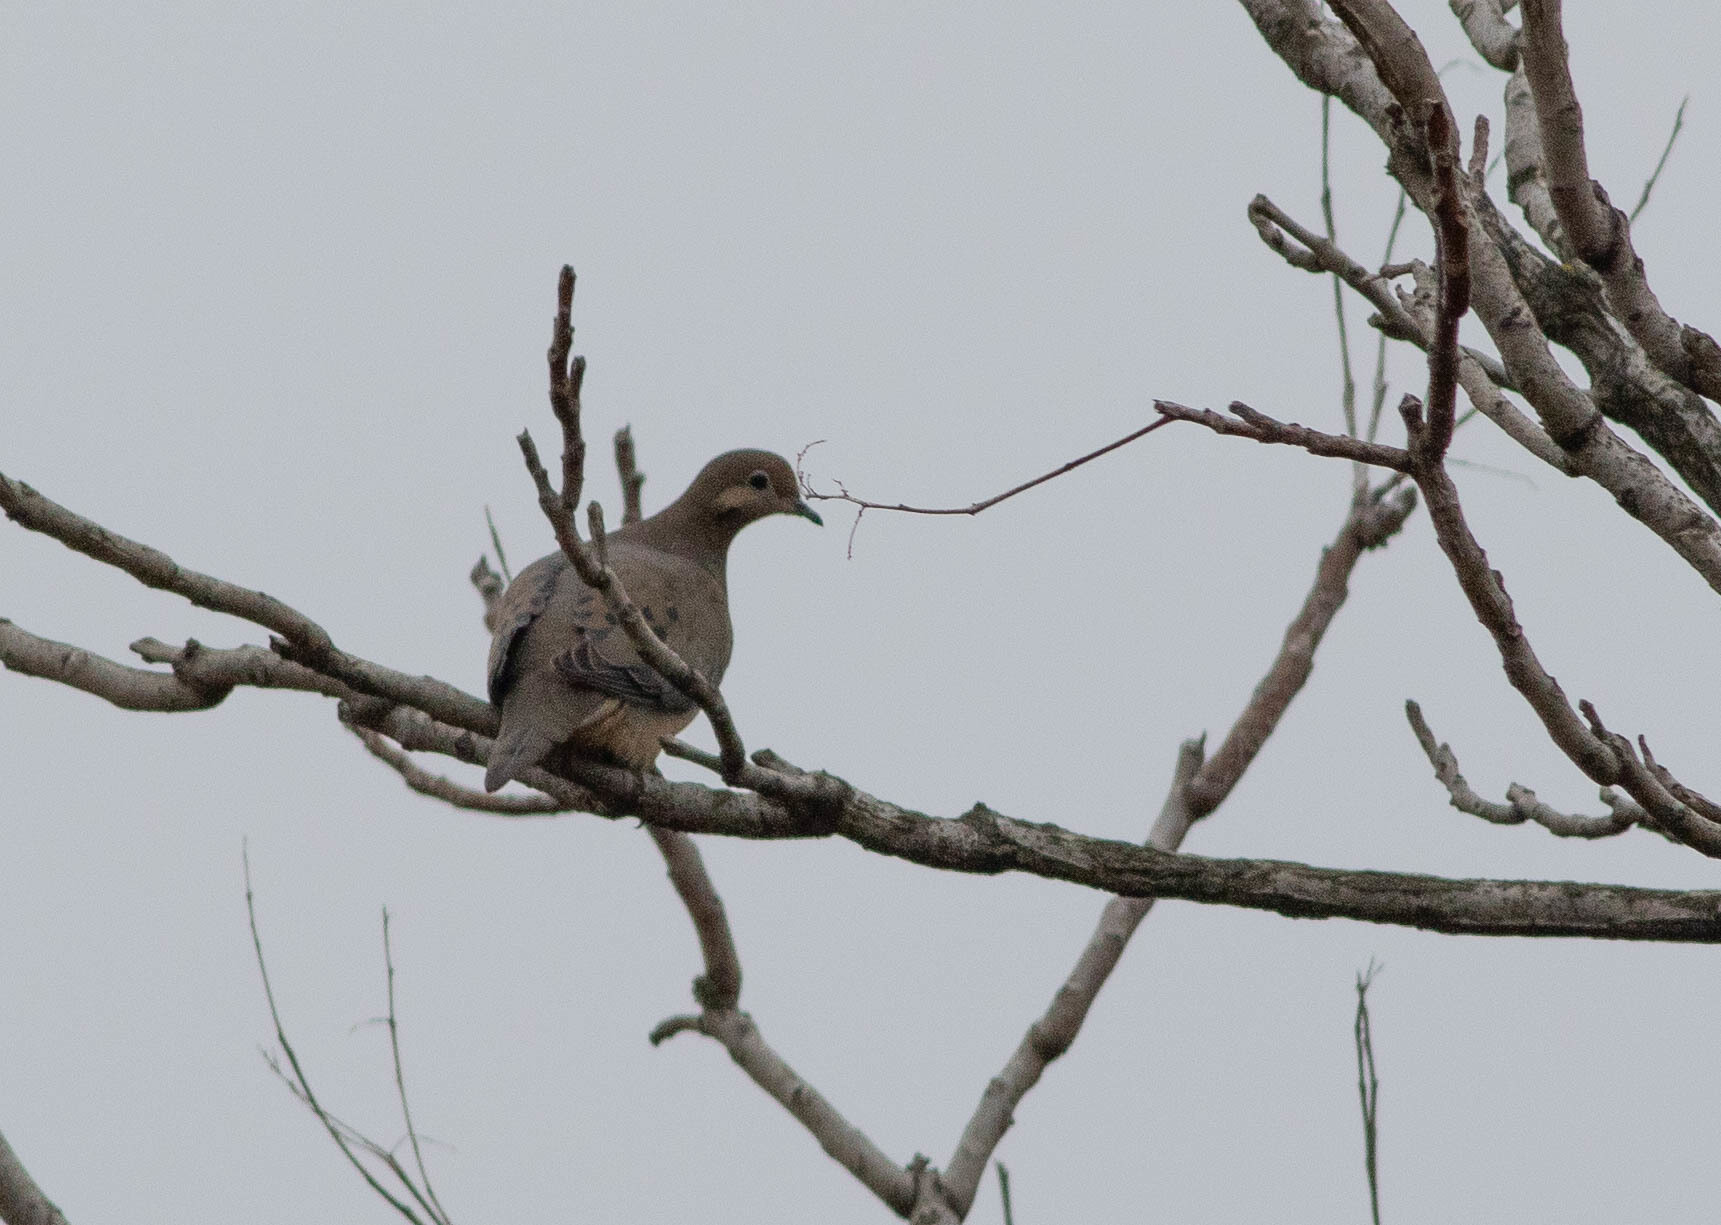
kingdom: Animalia
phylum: Chordata
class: Aves
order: Columbiformes
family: Columbidae
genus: Zenaida
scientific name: Zenaida macroura
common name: Mourning dove
